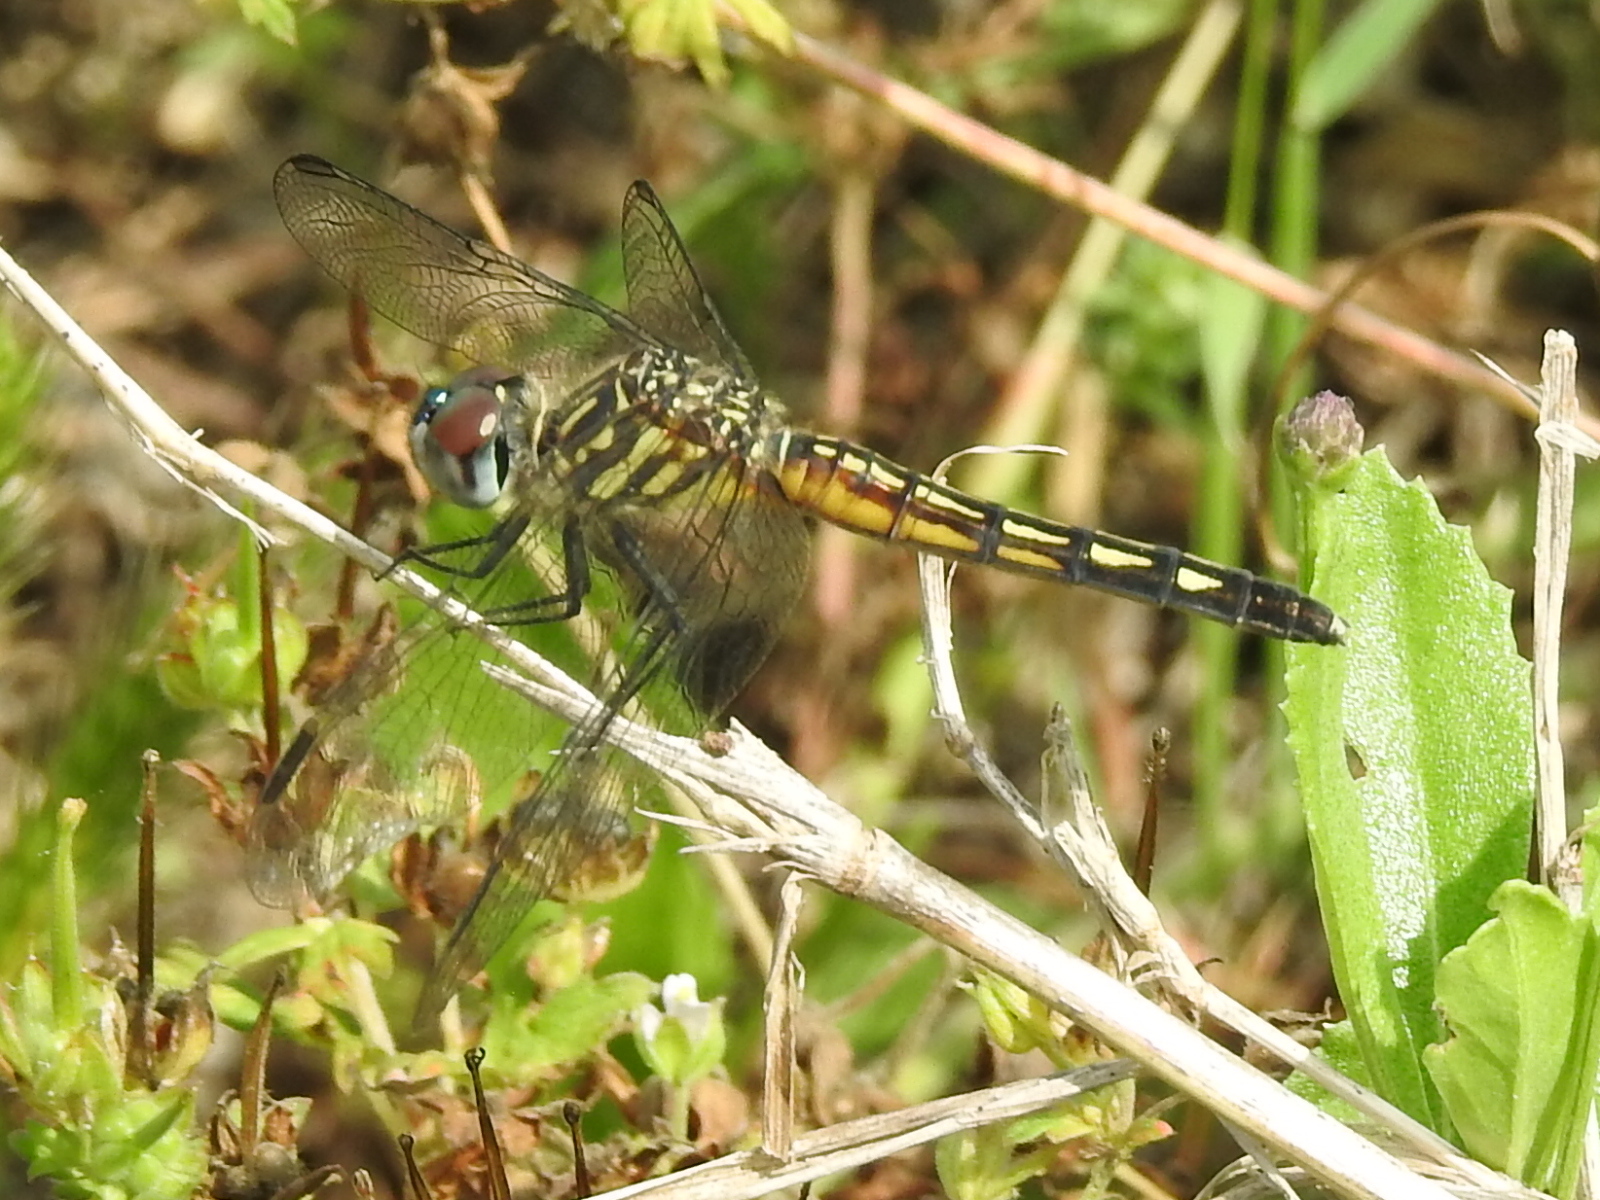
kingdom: Animalia
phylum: Arthropoda
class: Insecta
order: Odonata
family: Libellulidae
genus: Pachydiplax
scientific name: Pachydiplax longipennis
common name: Blue dasher
